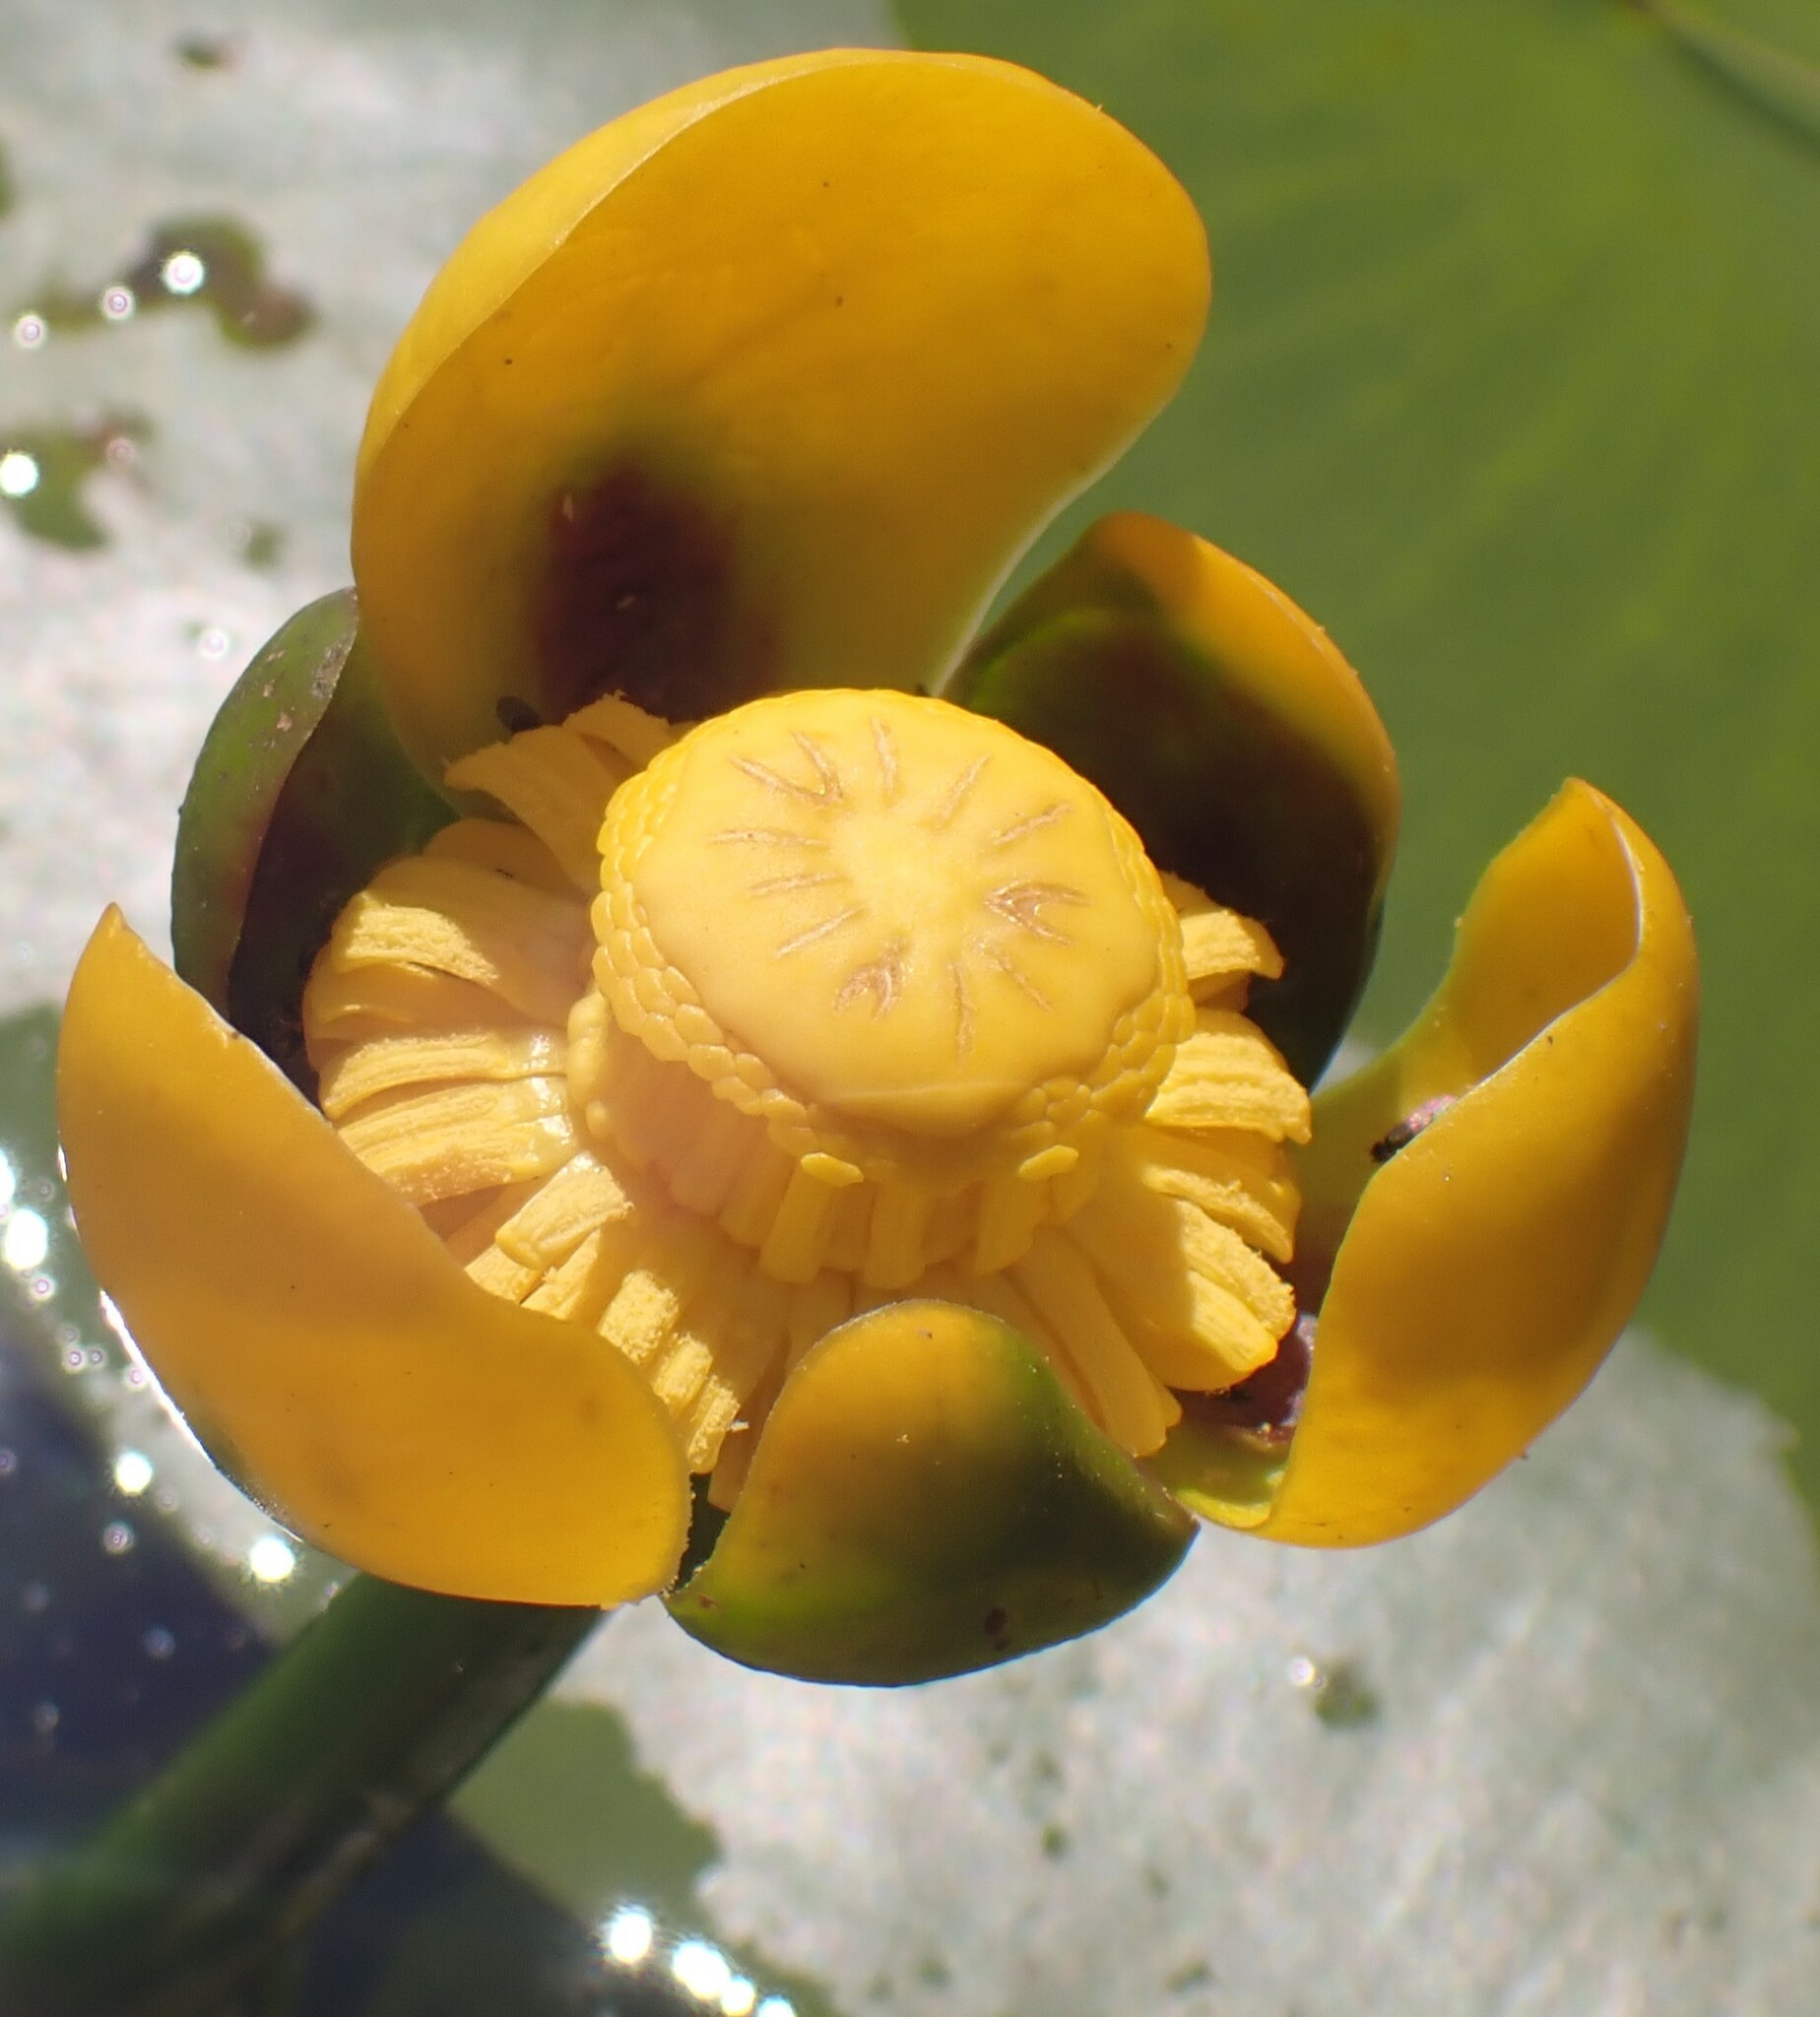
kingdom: Plantae
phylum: Tracheophyta
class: Magnoliopsida
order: Nymphaeales
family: Nymphaeaceae
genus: Nuphar
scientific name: Nuphar variegata
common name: Beaver-root
